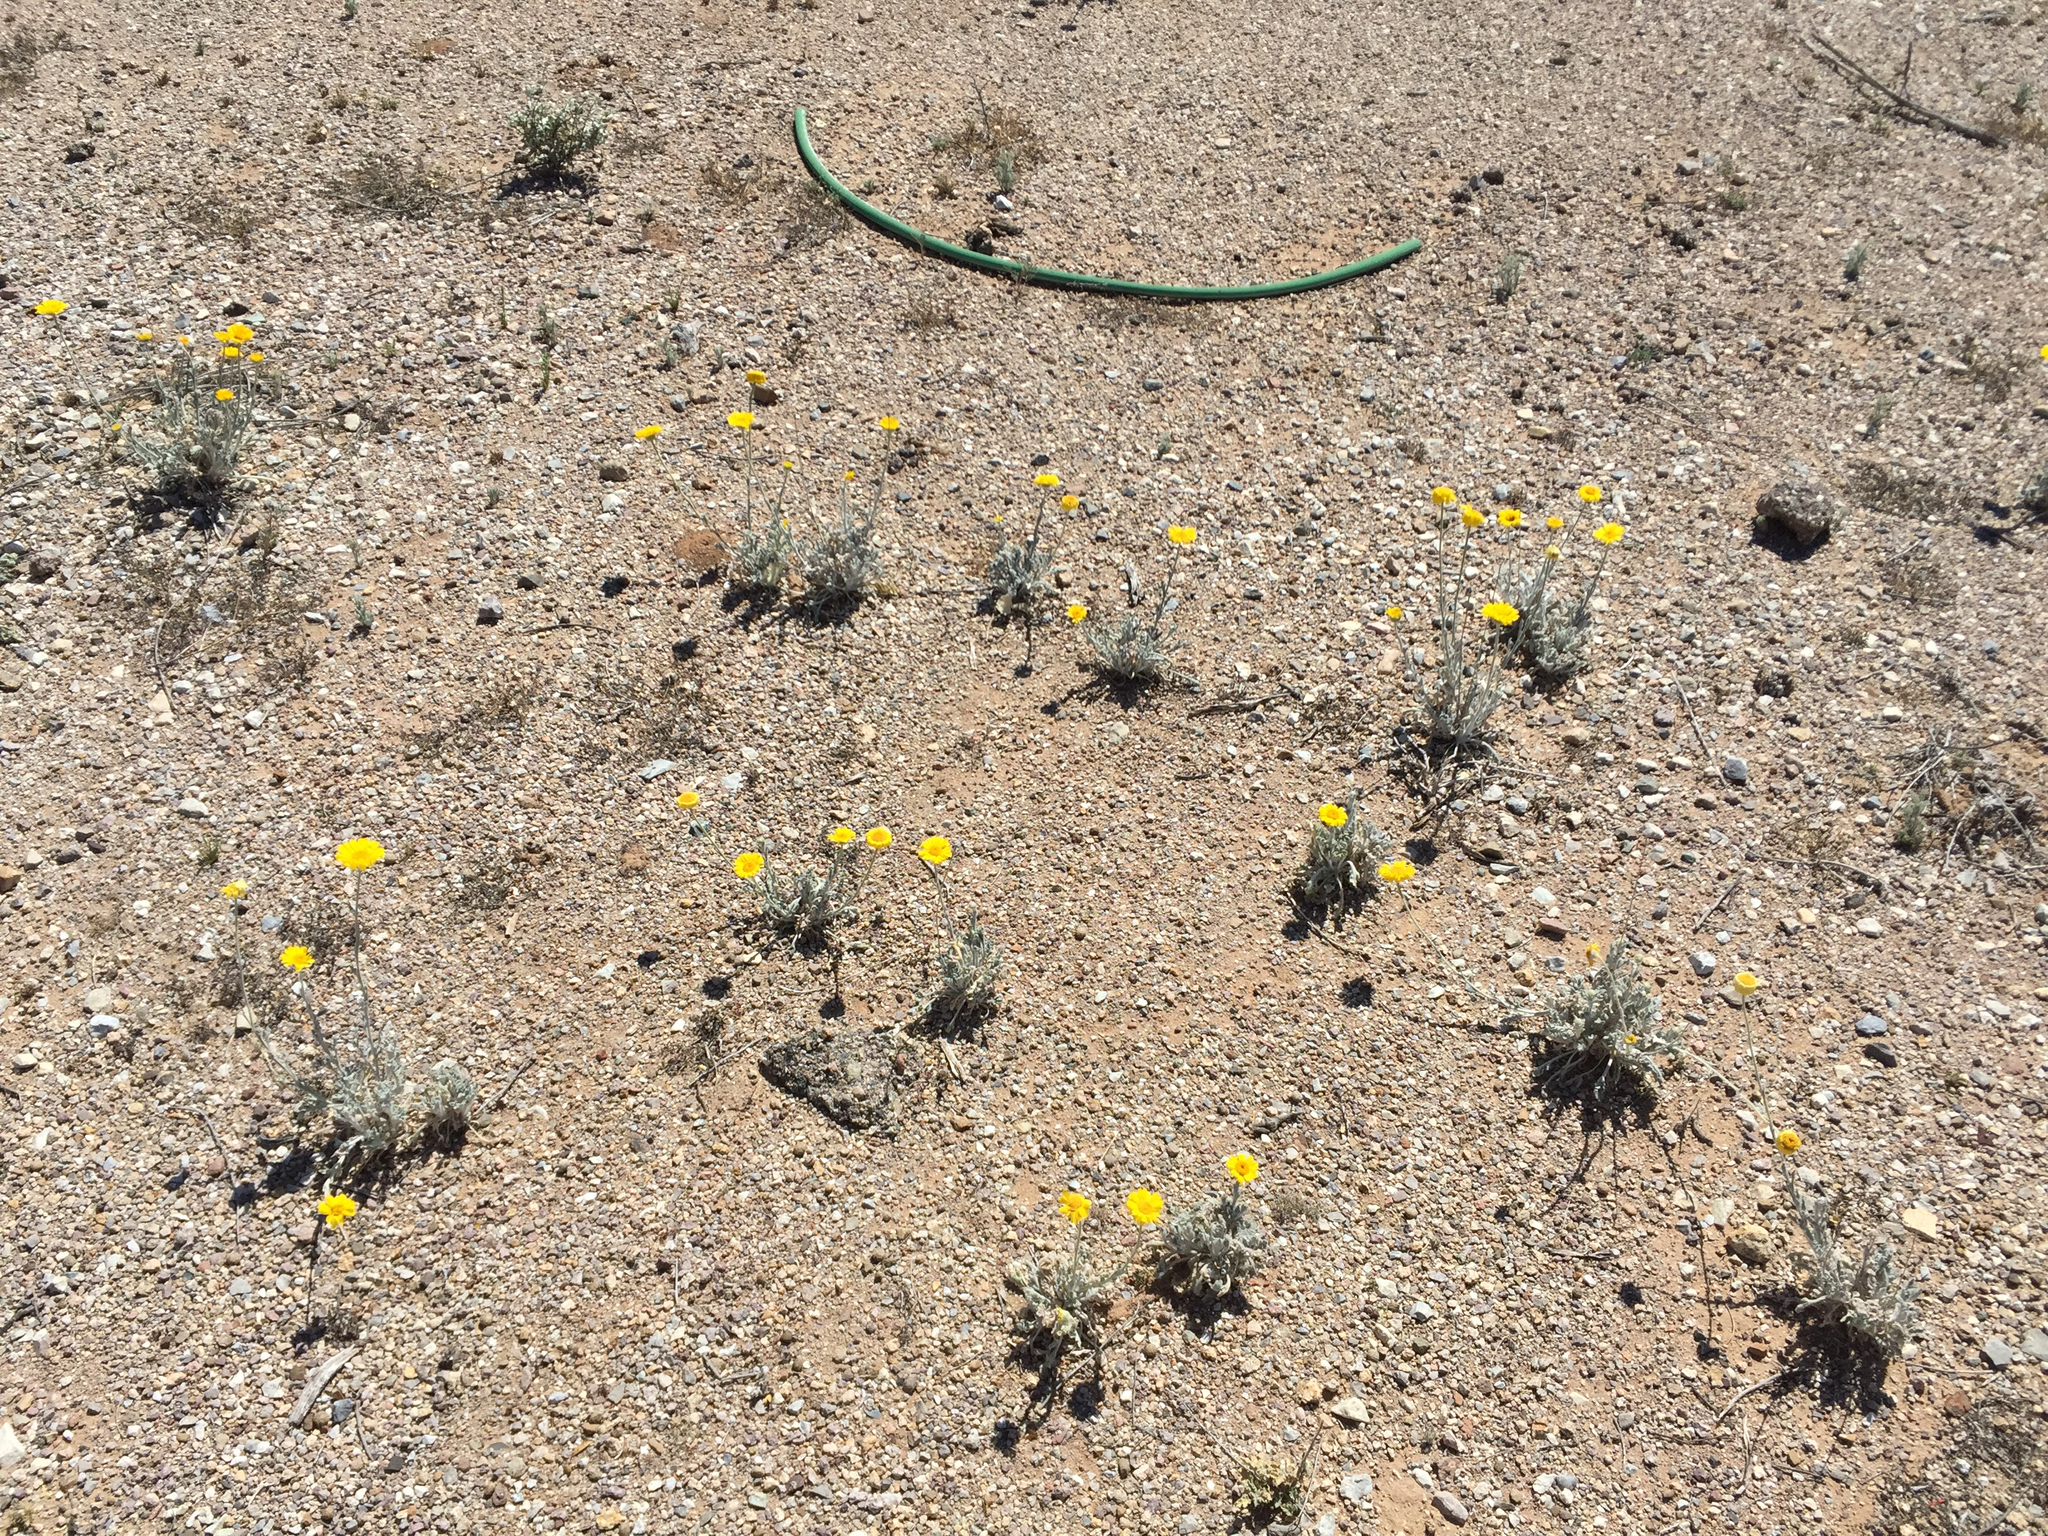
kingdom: Plantae
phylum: Tracheophyta
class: Magnoliopsida
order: Asterales
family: Asteraceae
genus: Baileya
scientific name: Baileya multiradiata
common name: Desert-marigold
